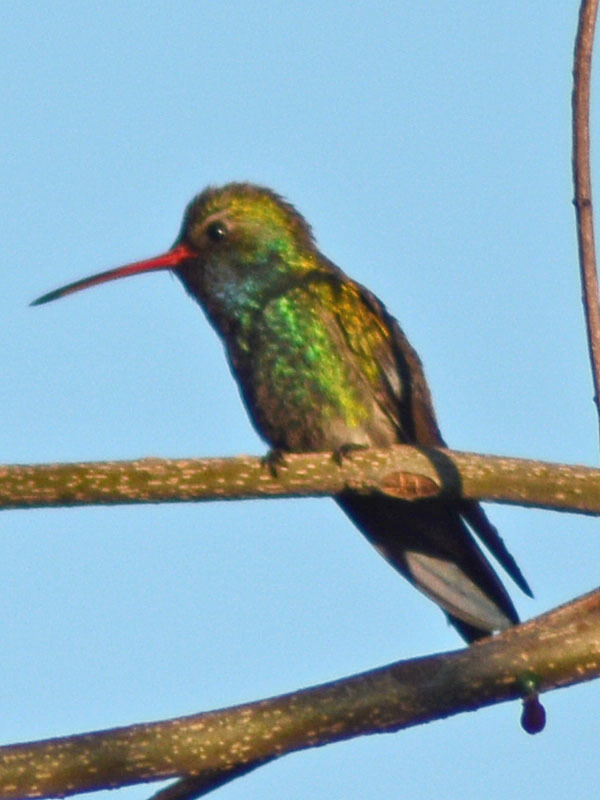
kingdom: Animalia
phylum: Chordata
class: Aves
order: Apodiformes
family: Trochilidae
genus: Cynanthus
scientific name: Cynanthus latirostris
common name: Broad-billed hummingbird
